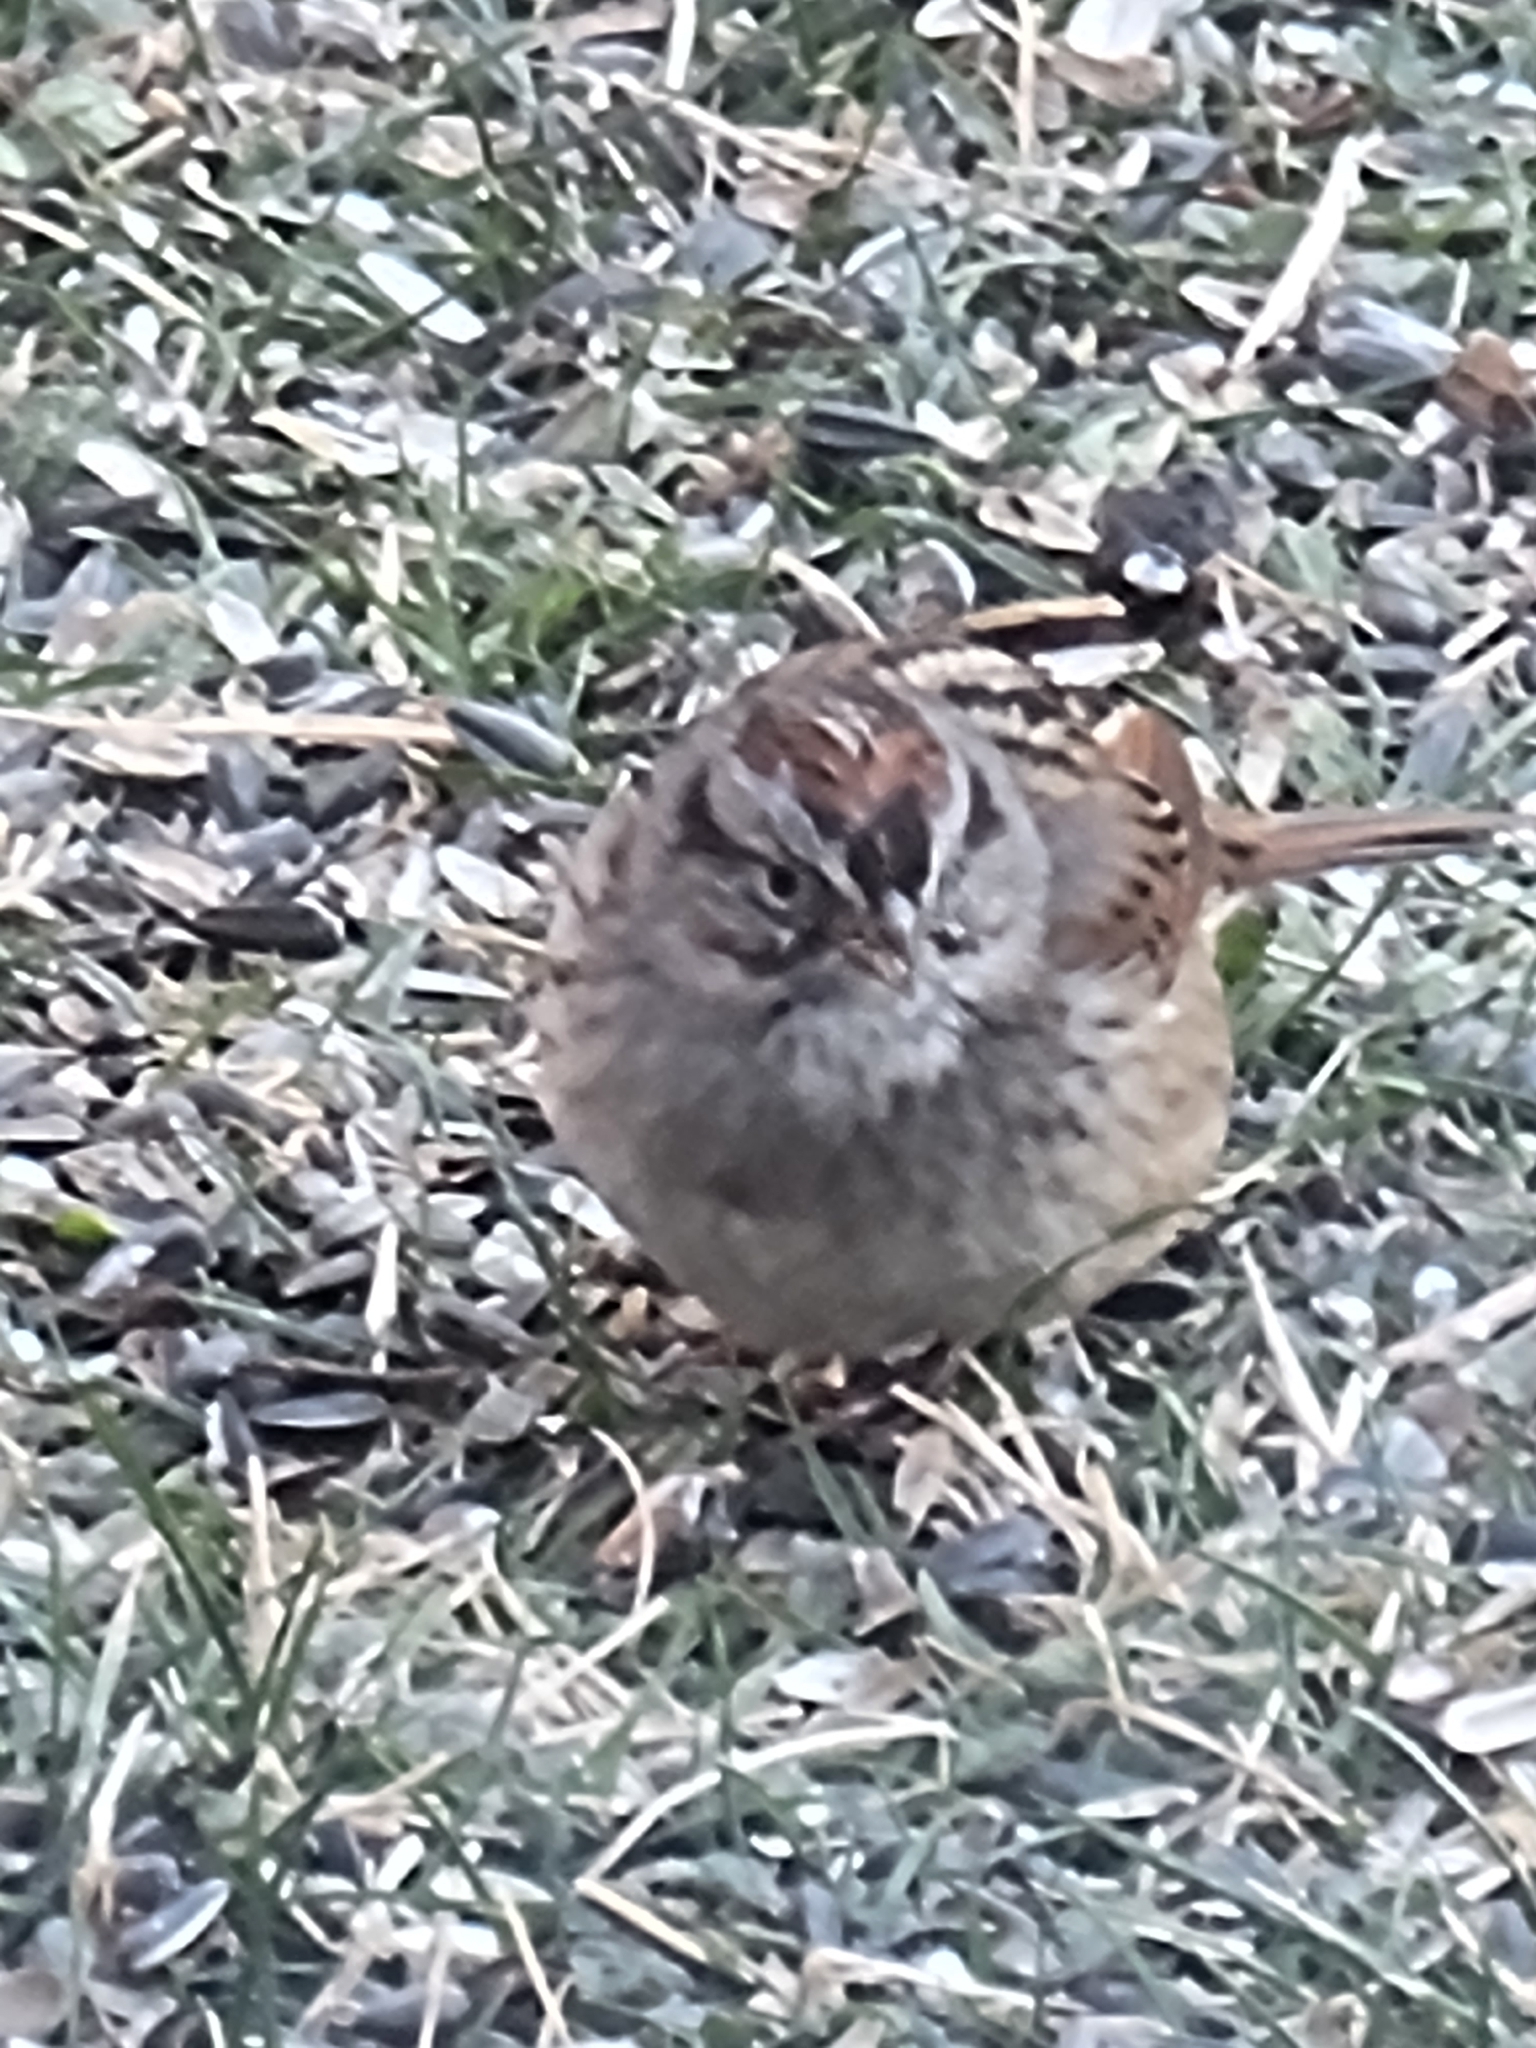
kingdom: Animalia
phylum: Chordata
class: Aves
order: Passeriformes
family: Passerellidae
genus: Melospiza
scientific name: Melospiza georgiana
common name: Swamp sparrow
